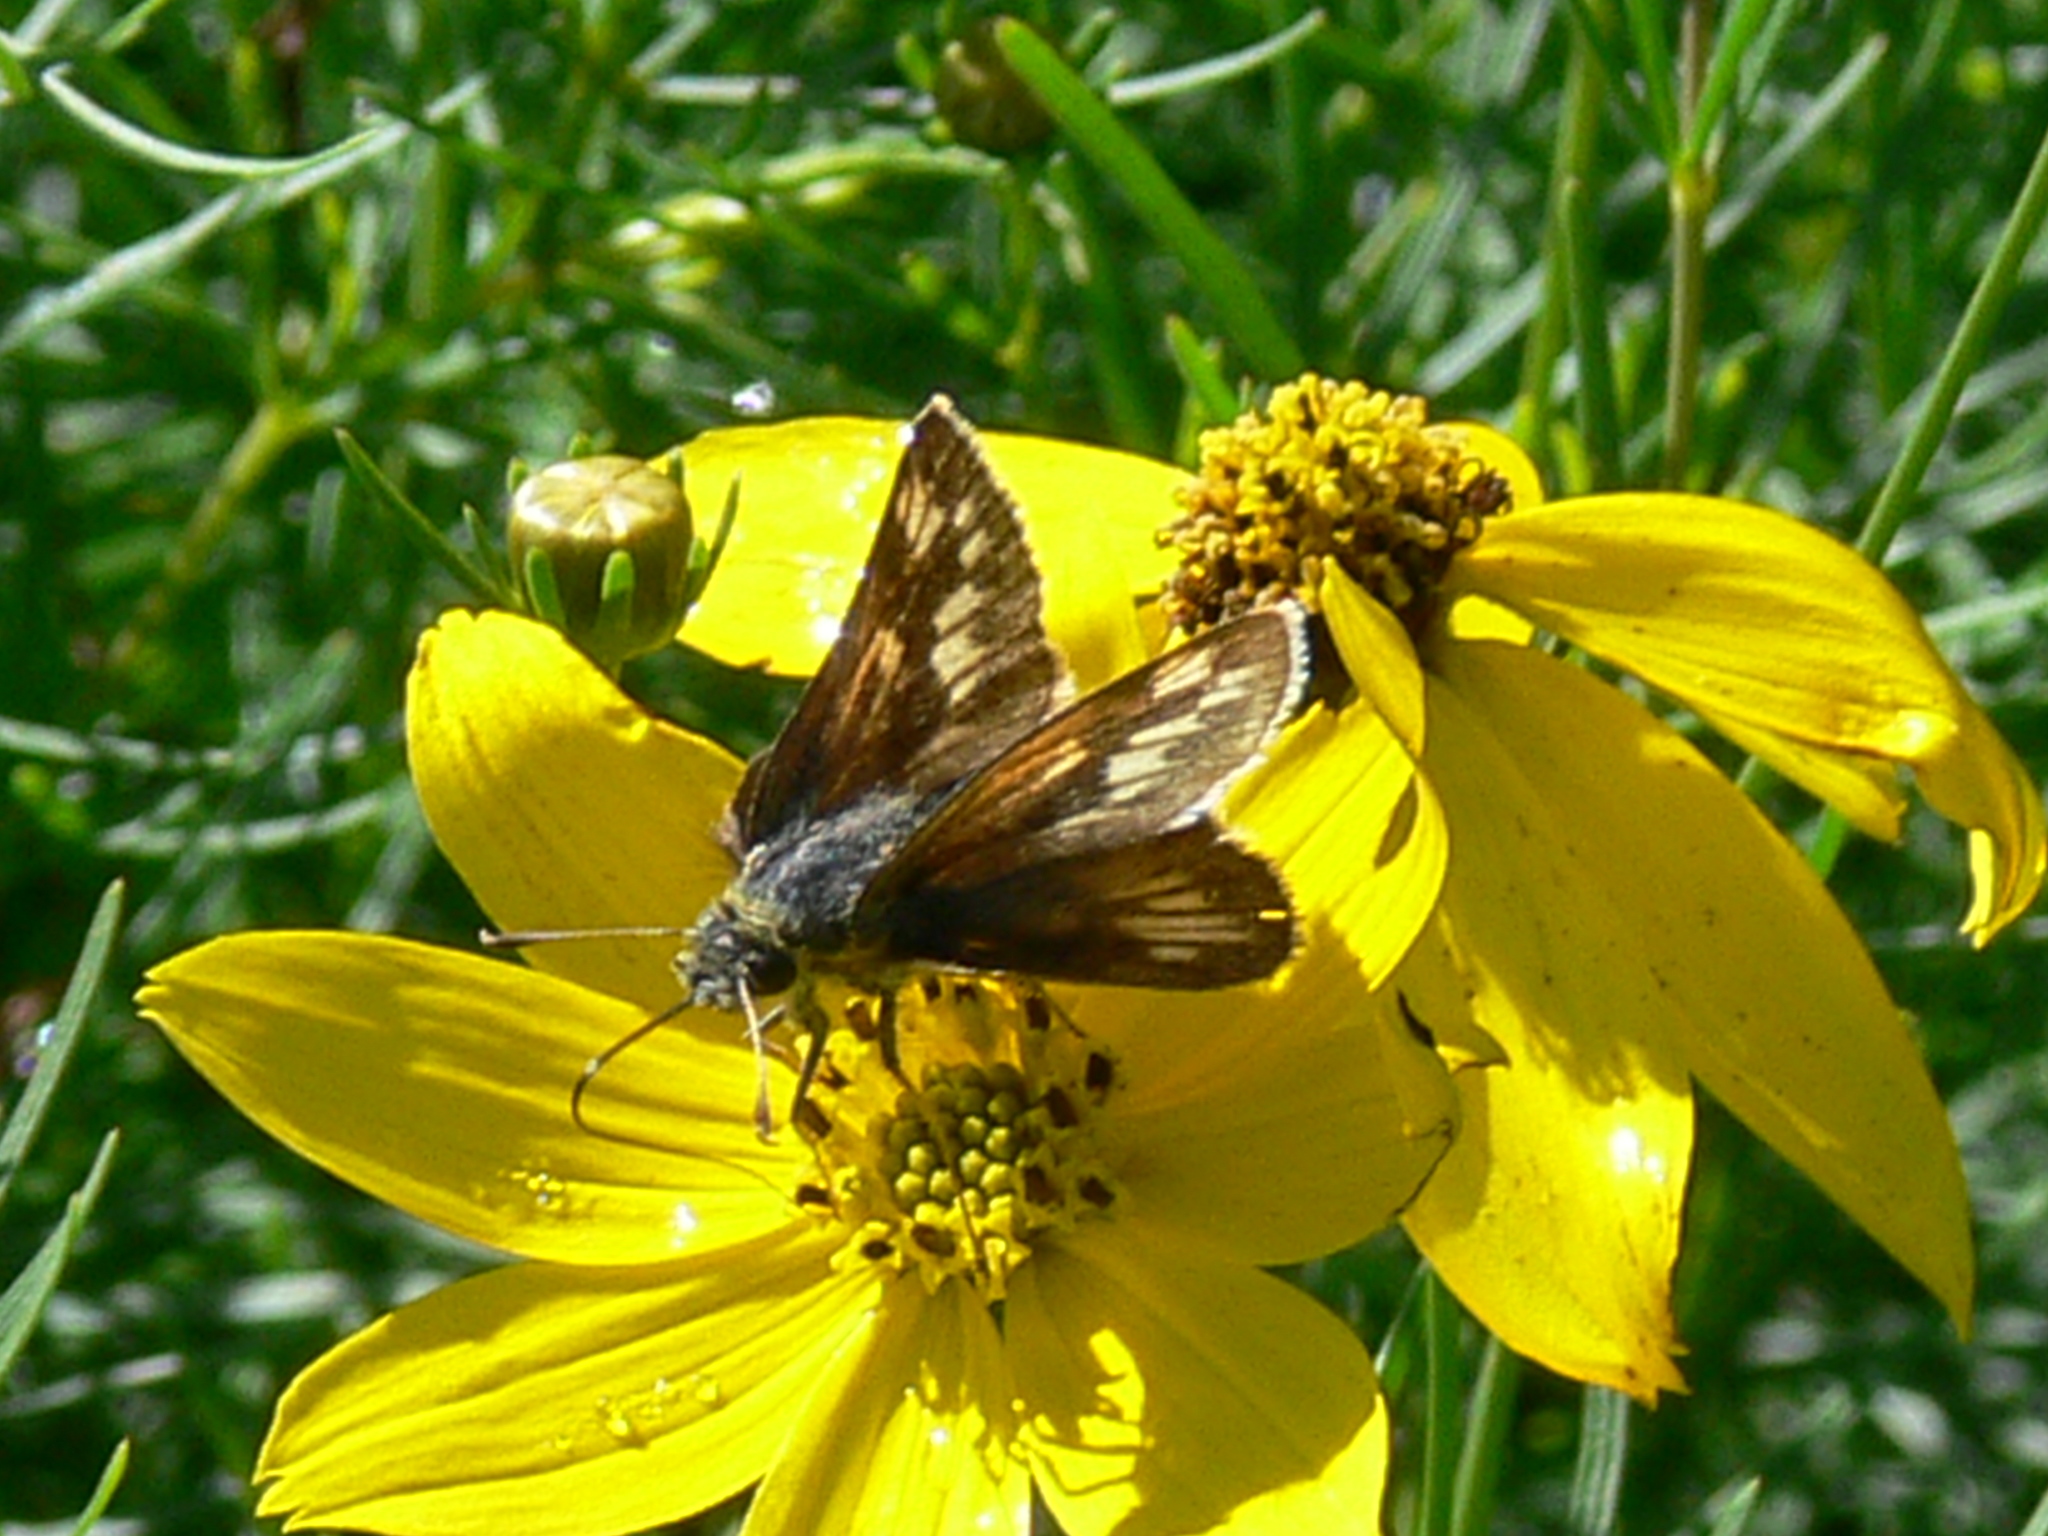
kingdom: Animalia
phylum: Arthropoda
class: Insecta
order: Lepidoptera
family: Hesperiidae
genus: Polites
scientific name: Polites coras
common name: Peck's skipper
